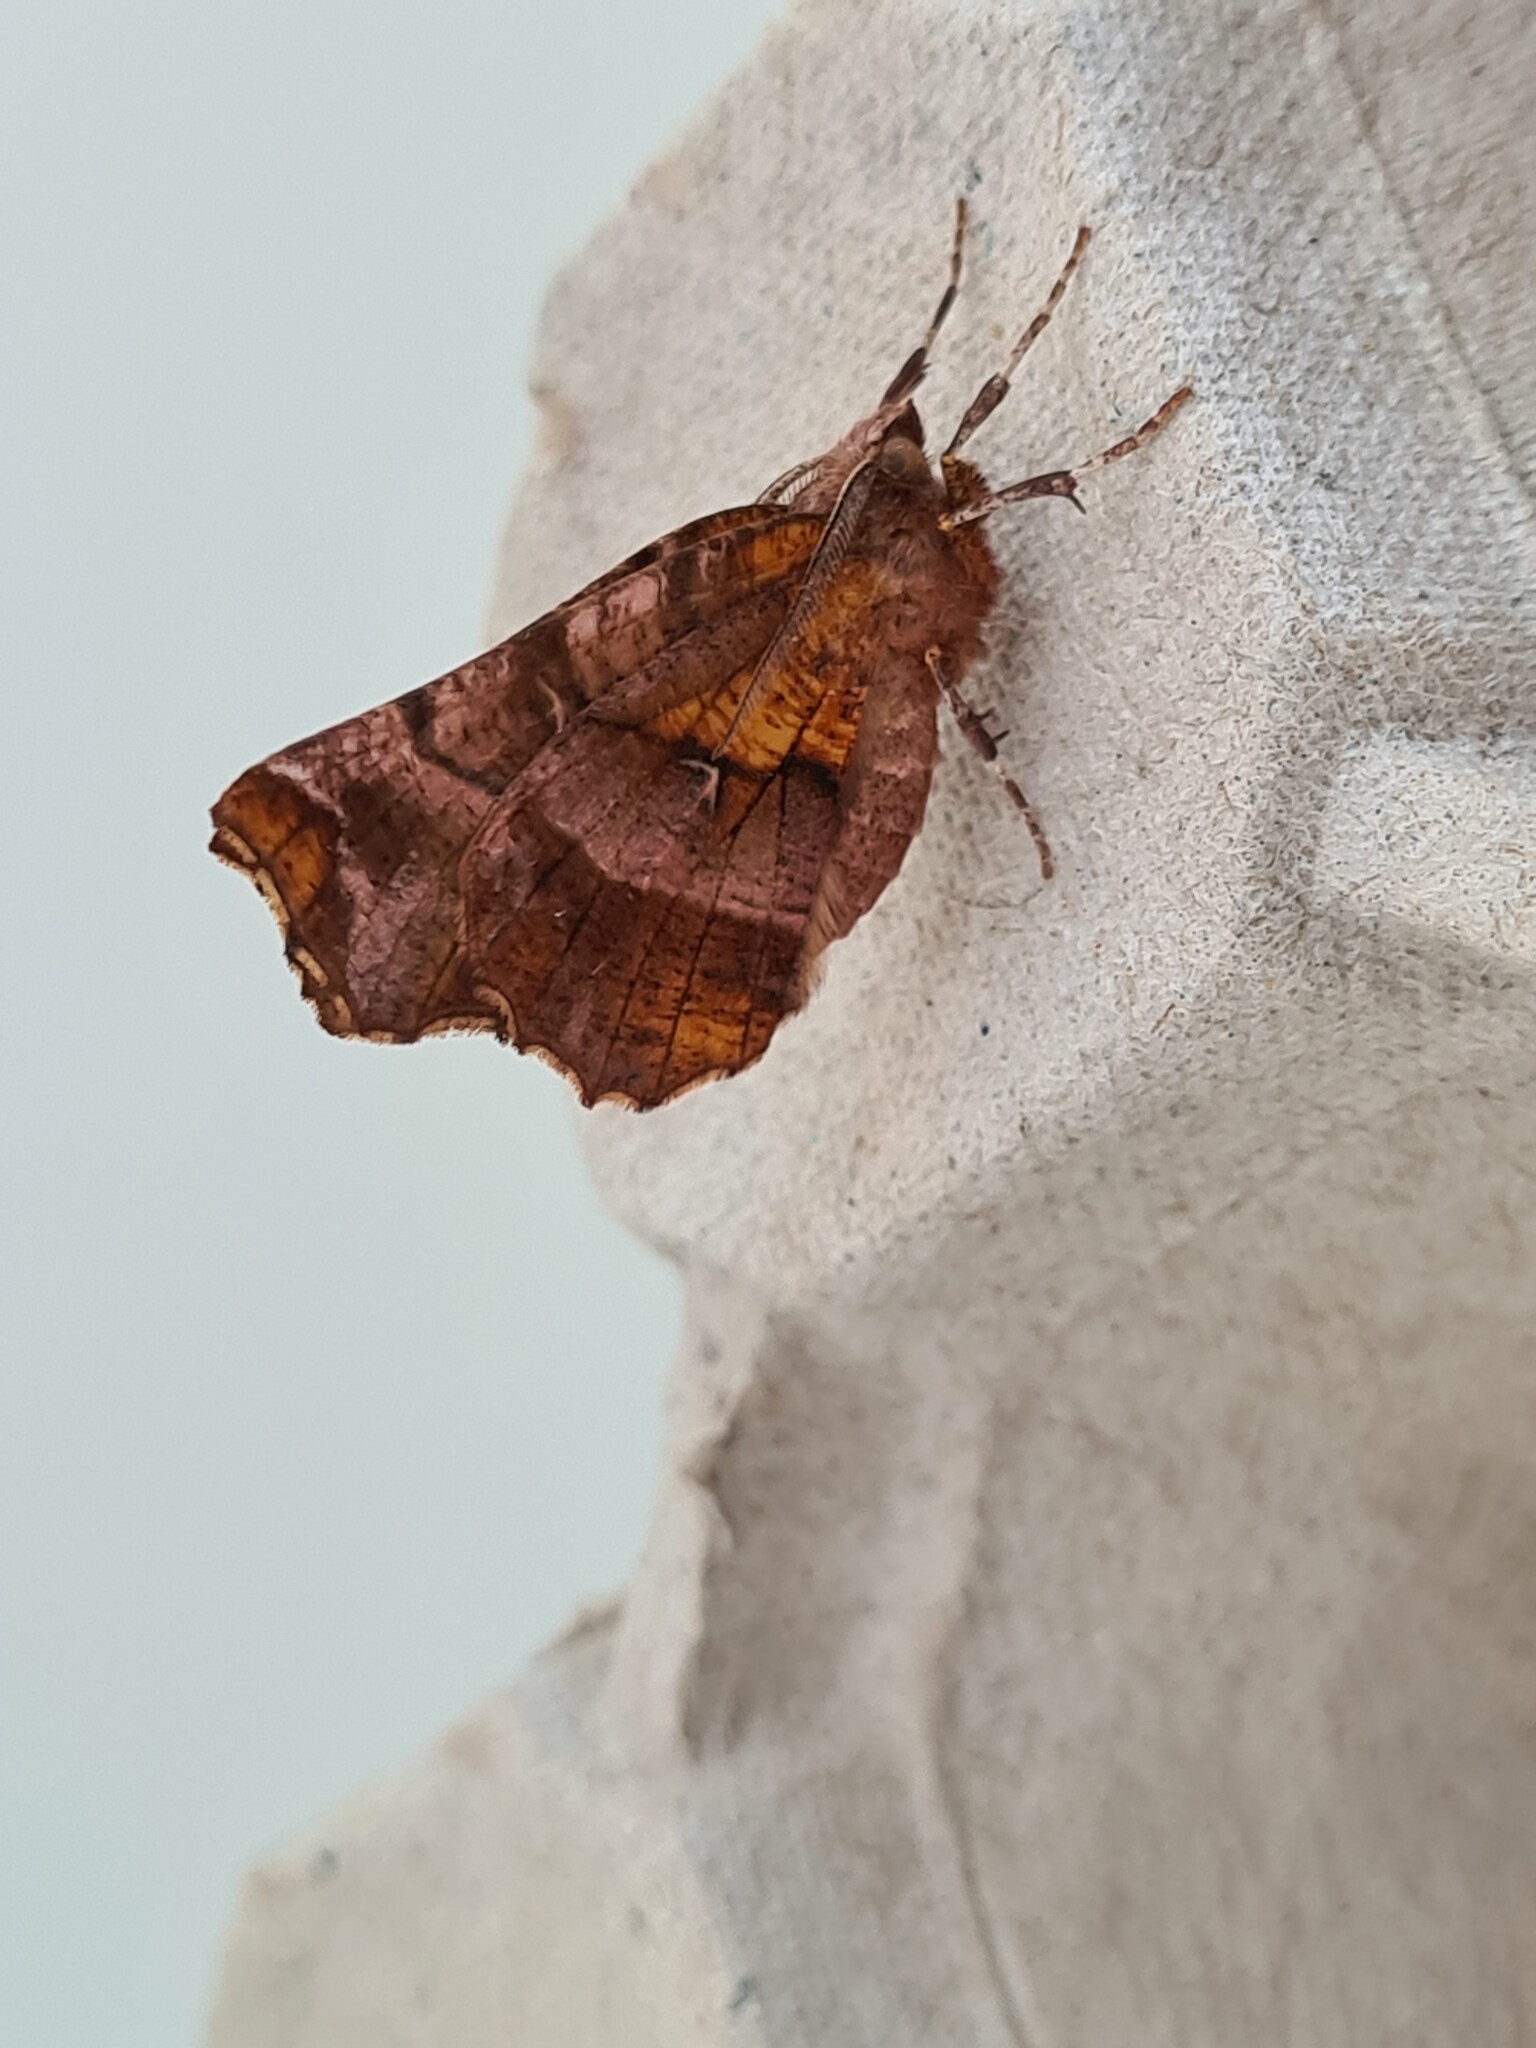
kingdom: Animalia
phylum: Arthropoda
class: Insecta
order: Lepidoptera
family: Geometridae
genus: Selenia
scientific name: Selenia dentaria
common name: Early thorn
